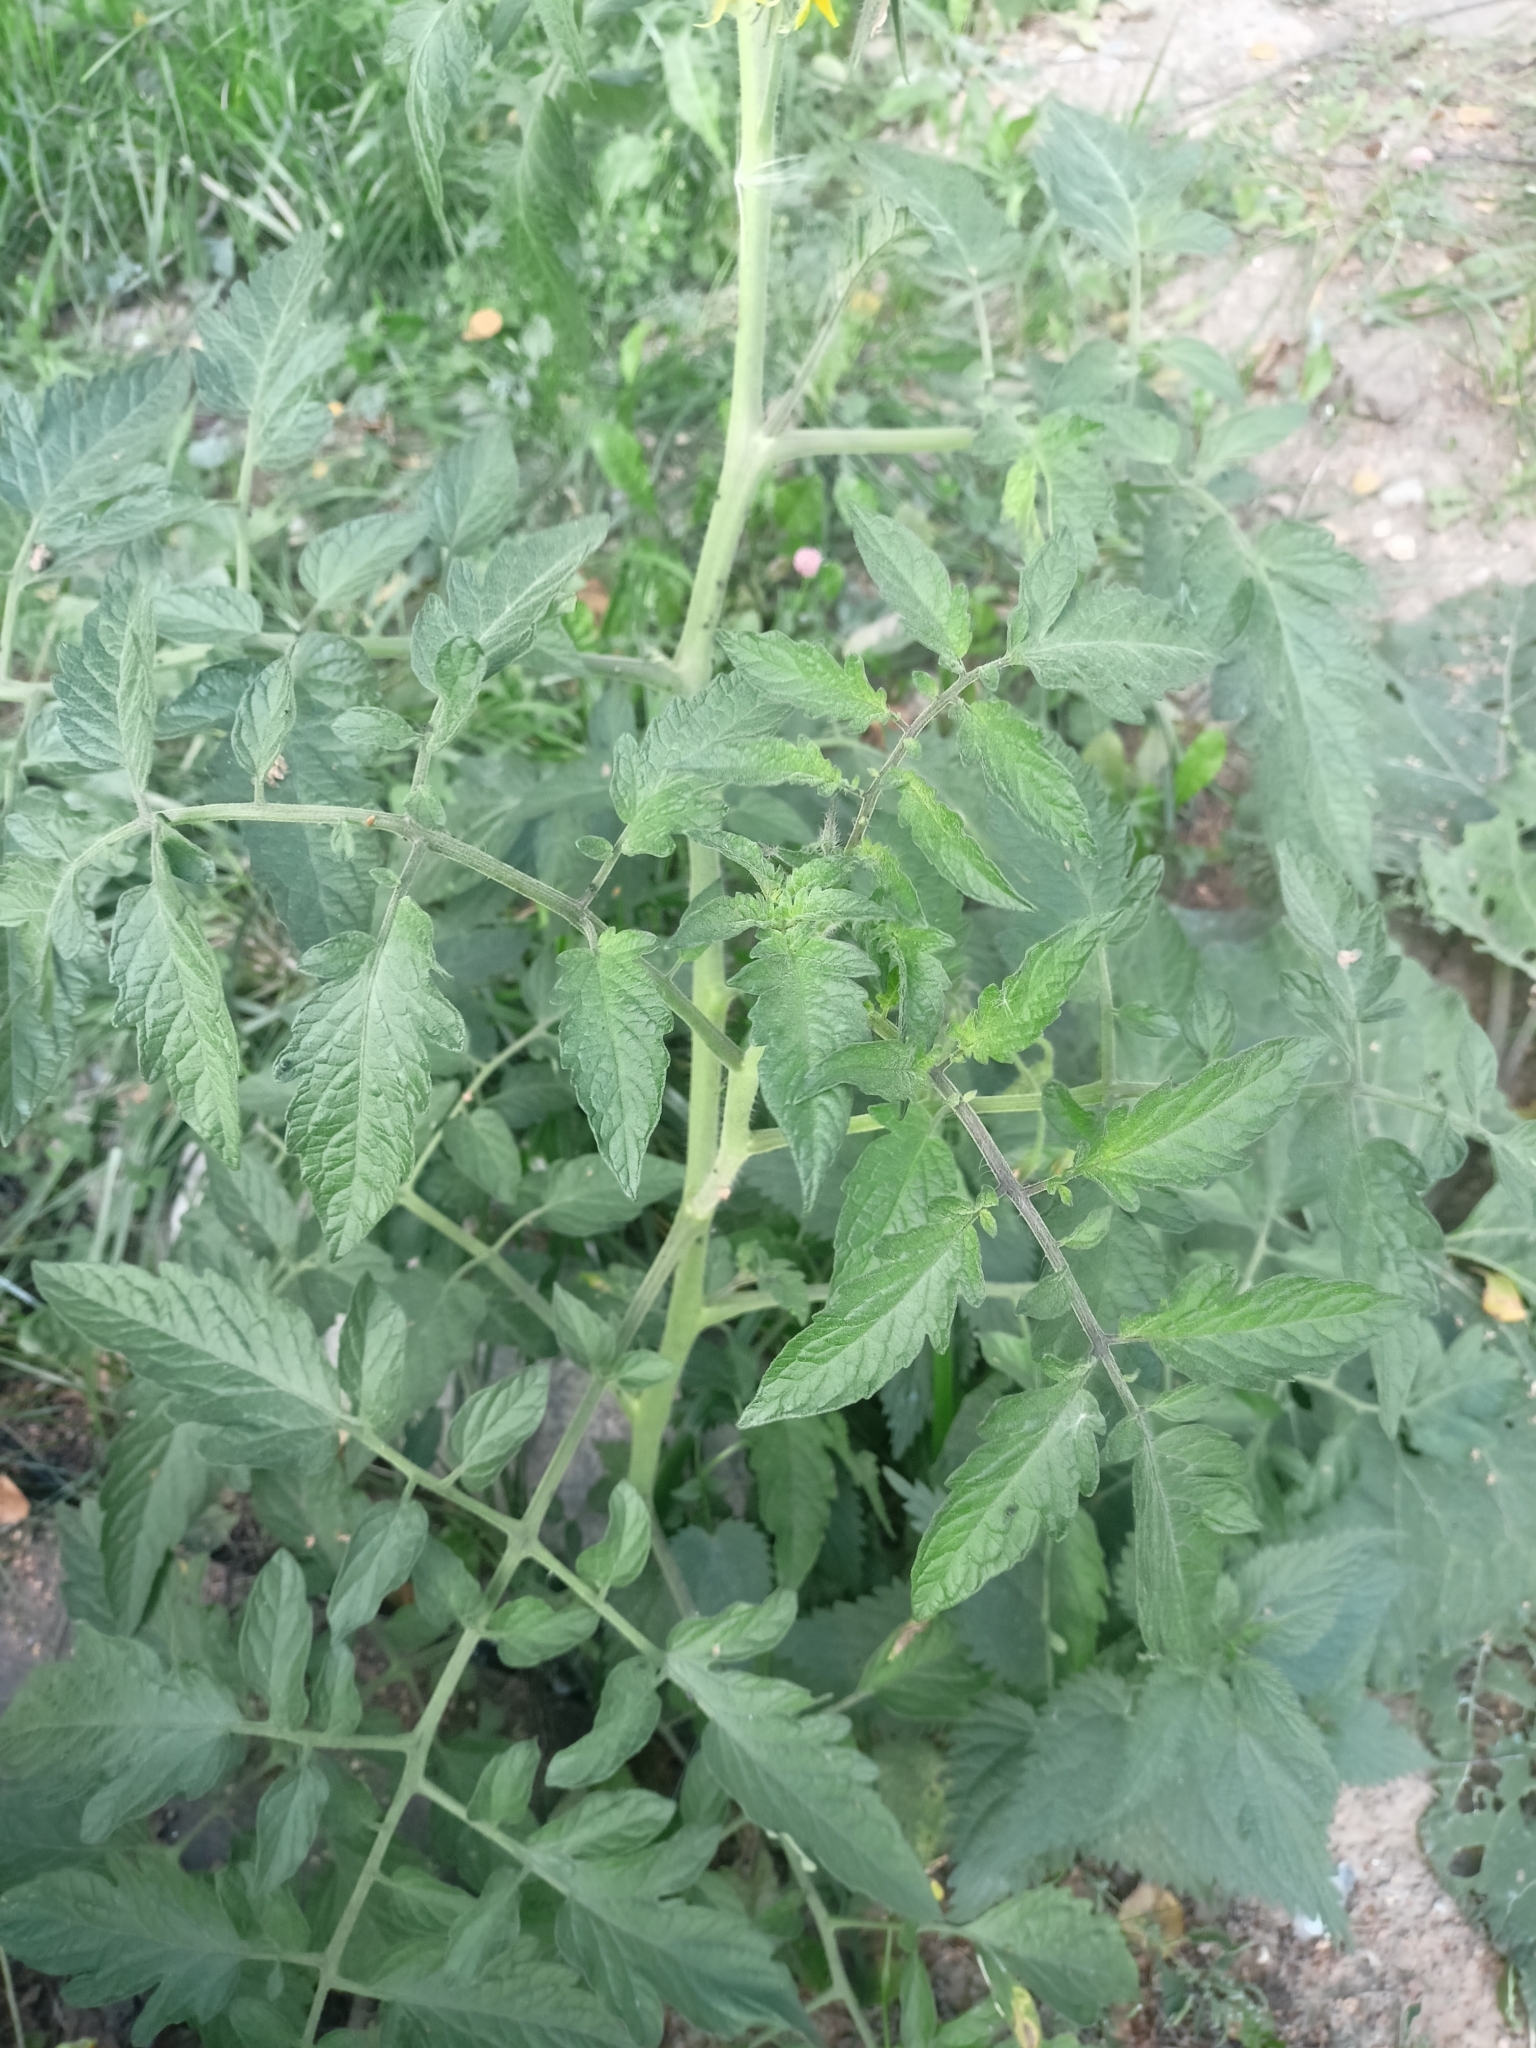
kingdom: Plantae
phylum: Tracheophyta
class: Magnoliopsida
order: Solanales
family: Solanaceae
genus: Solanum
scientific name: Solanum lycopersicum
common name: Garden tomato
